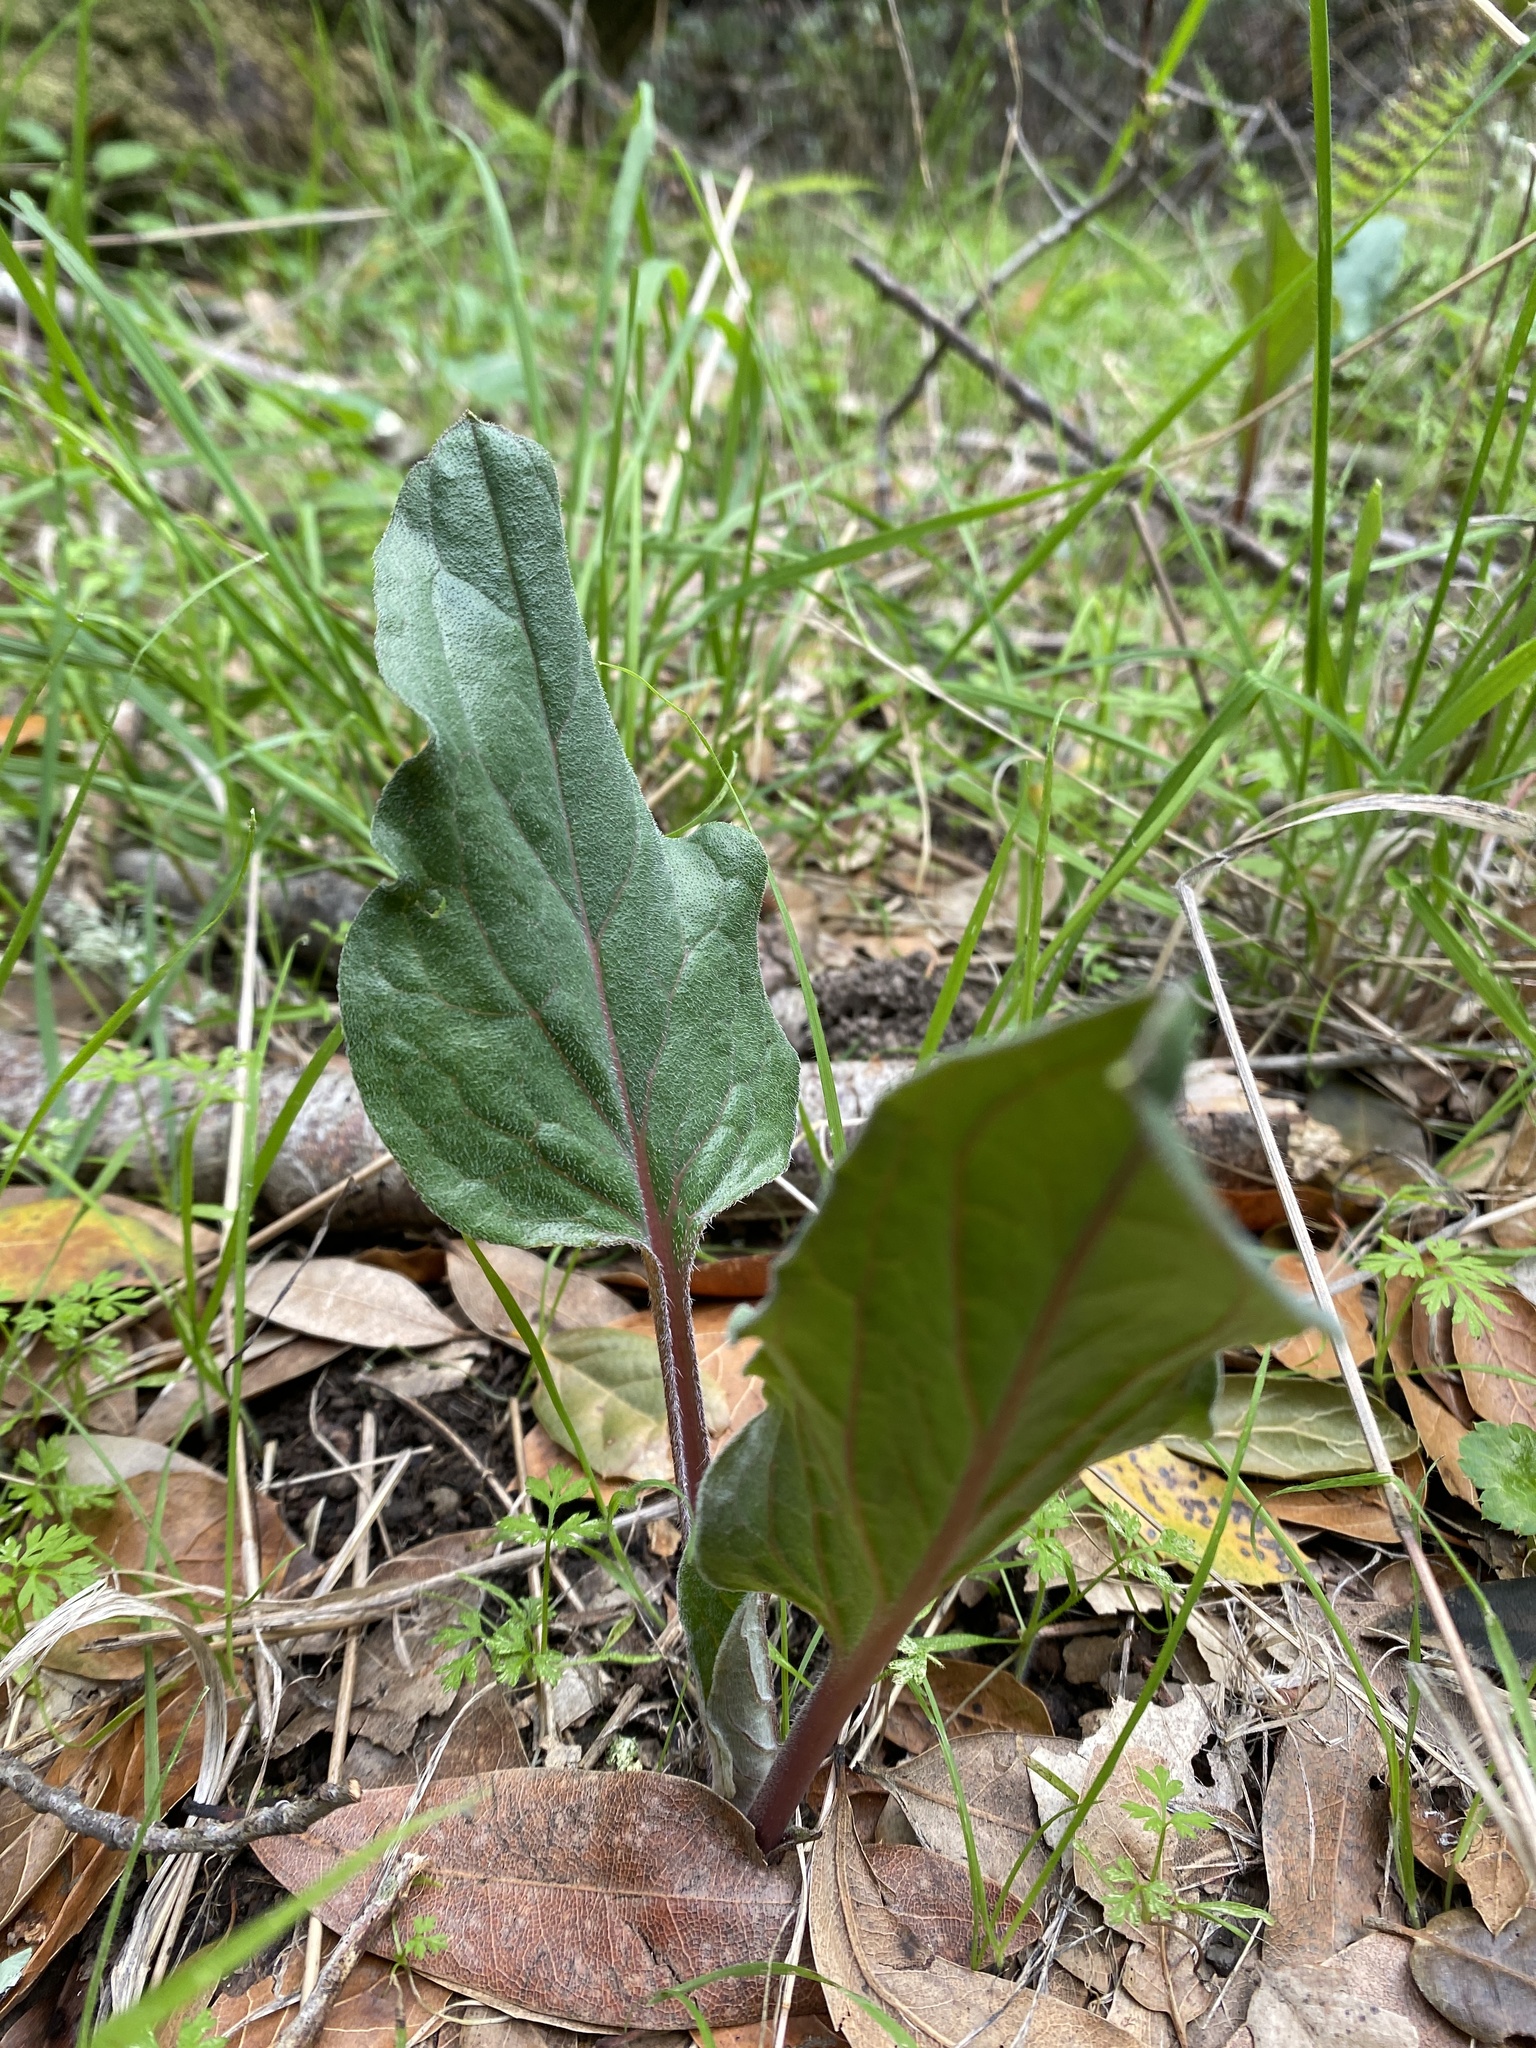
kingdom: Plantae
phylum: Tracheophyta
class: Magnoliopsida
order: Boraginales
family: Boraginaceae
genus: Adelinia
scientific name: Adelinia grande
